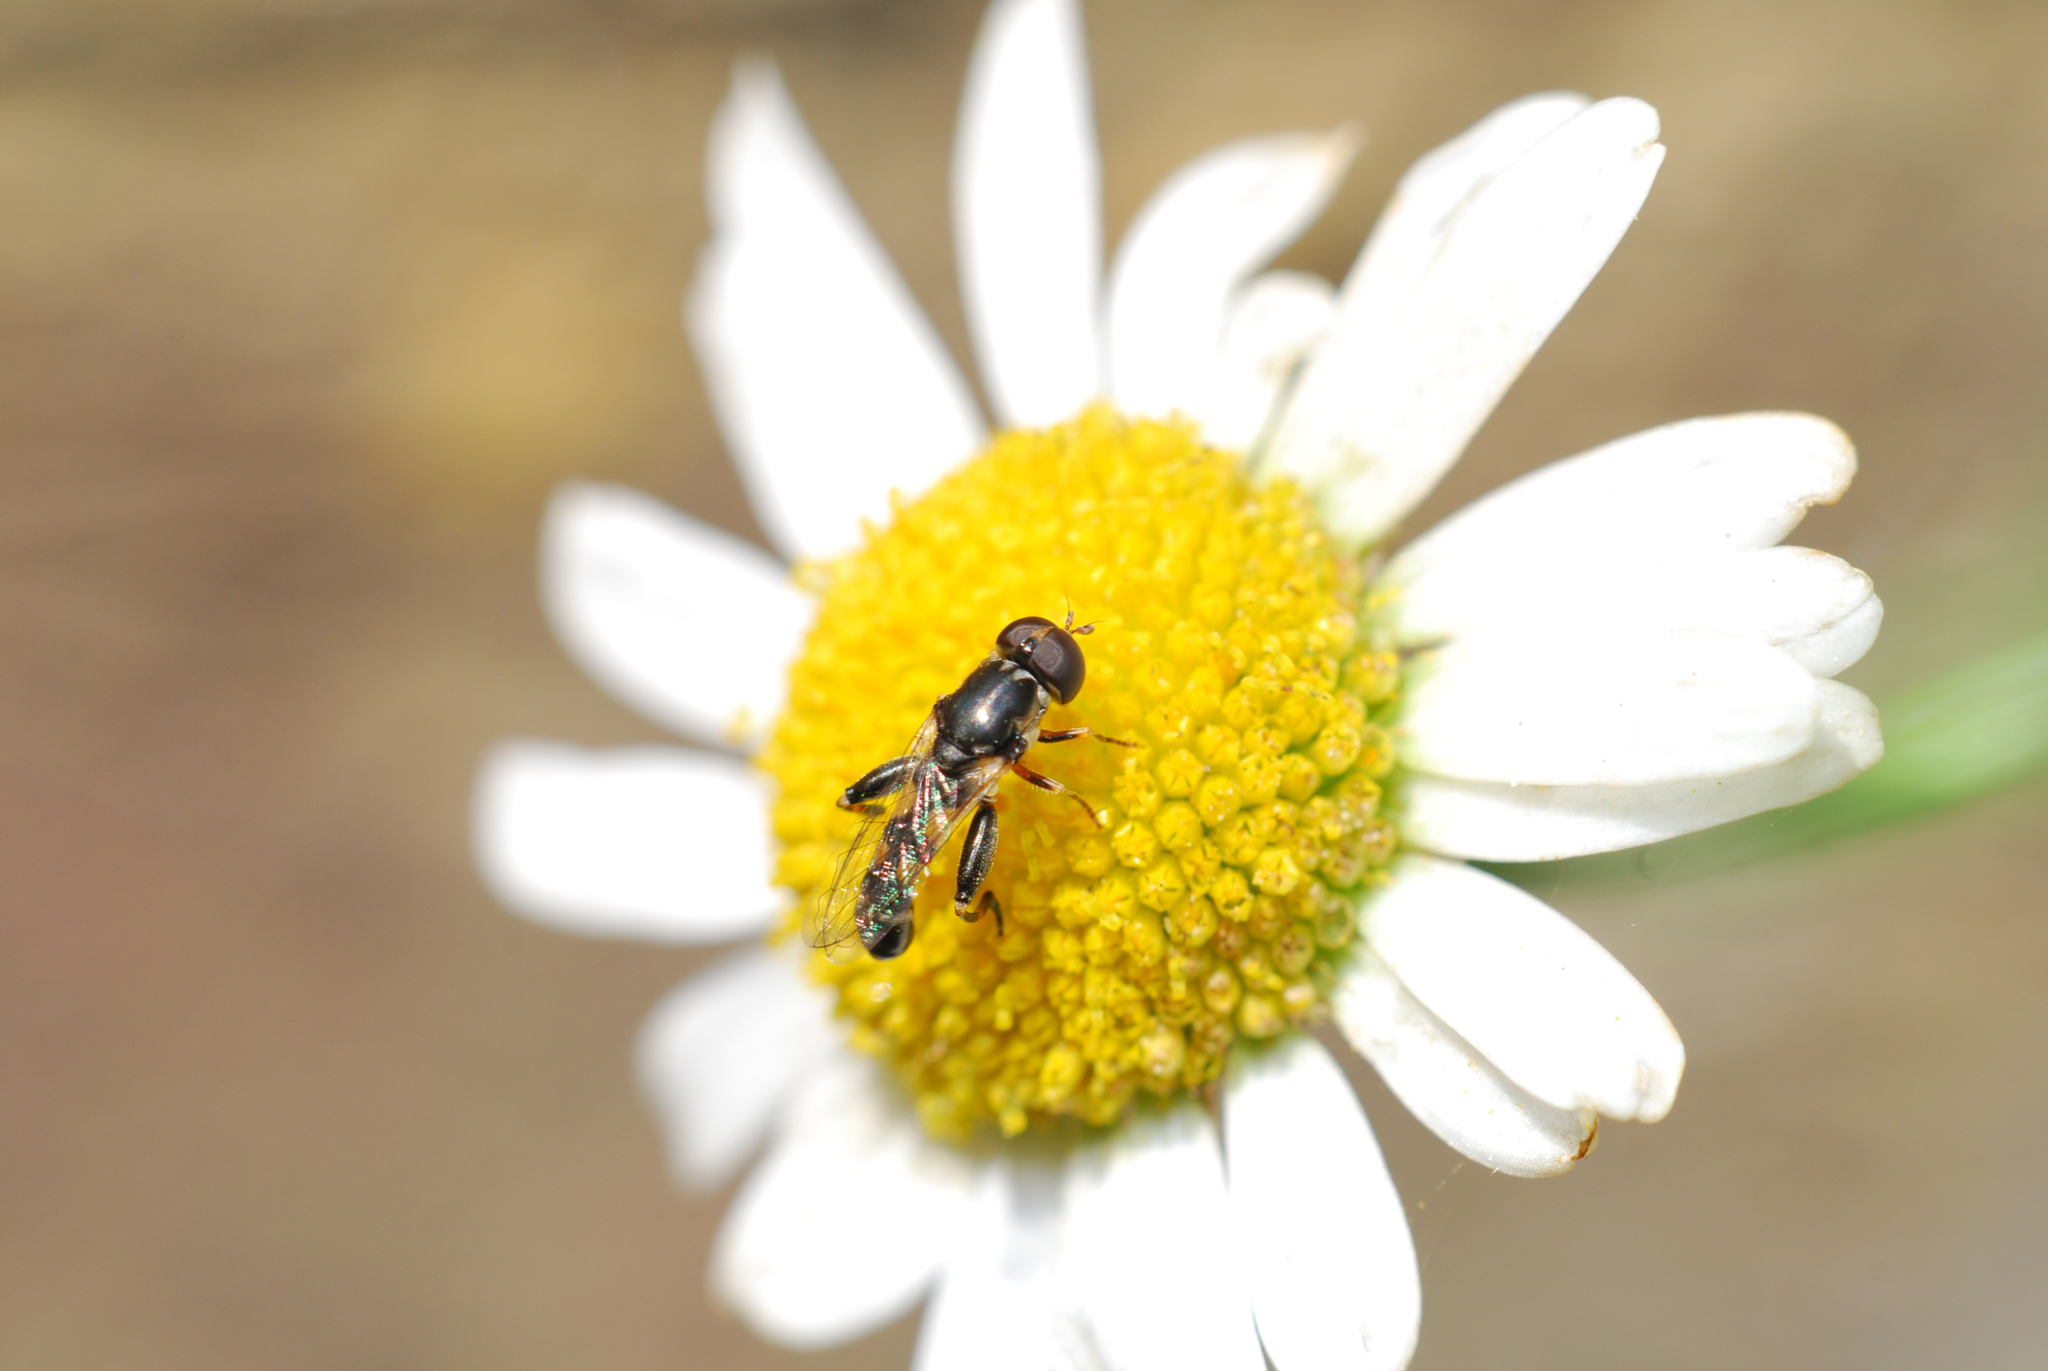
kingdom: Animalia
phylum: Arthropoda
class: Insecta
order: Diptera
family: Syrphidae
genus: Syritta
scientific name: Syritta pipiens
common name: Hover fly
